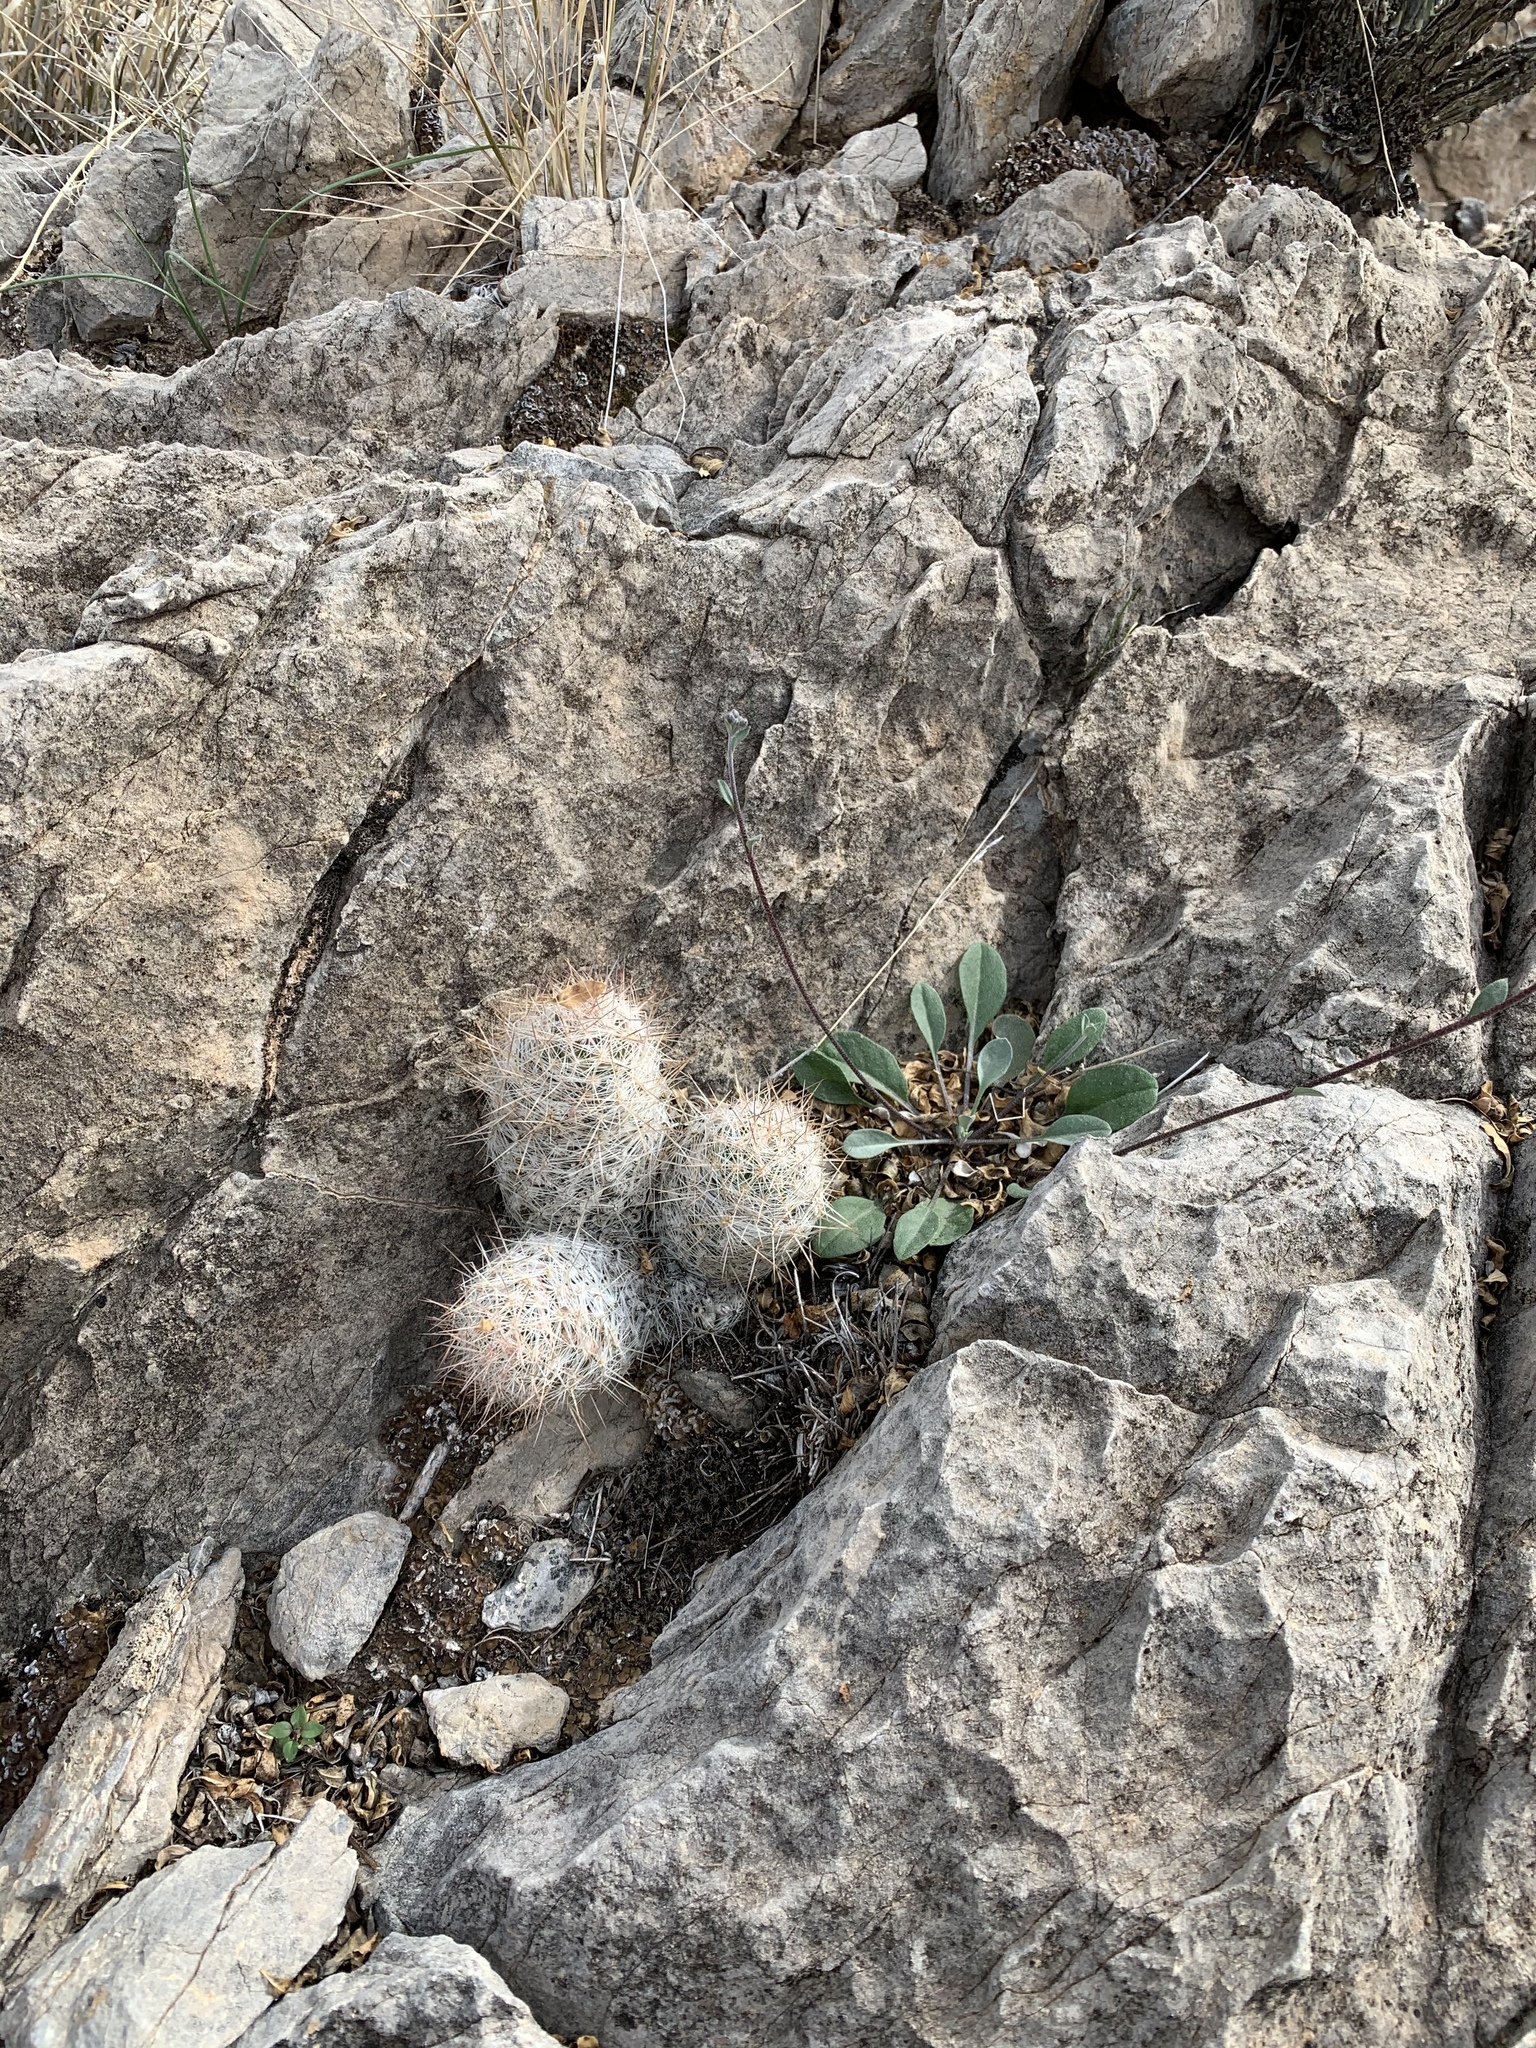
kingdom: Plantae
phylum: Tracheophyta
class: Magnoliopsida
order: Caryophyllales
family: Cactaceae
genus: Pelecyphora
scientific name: Pelecyphora tuberculosa
